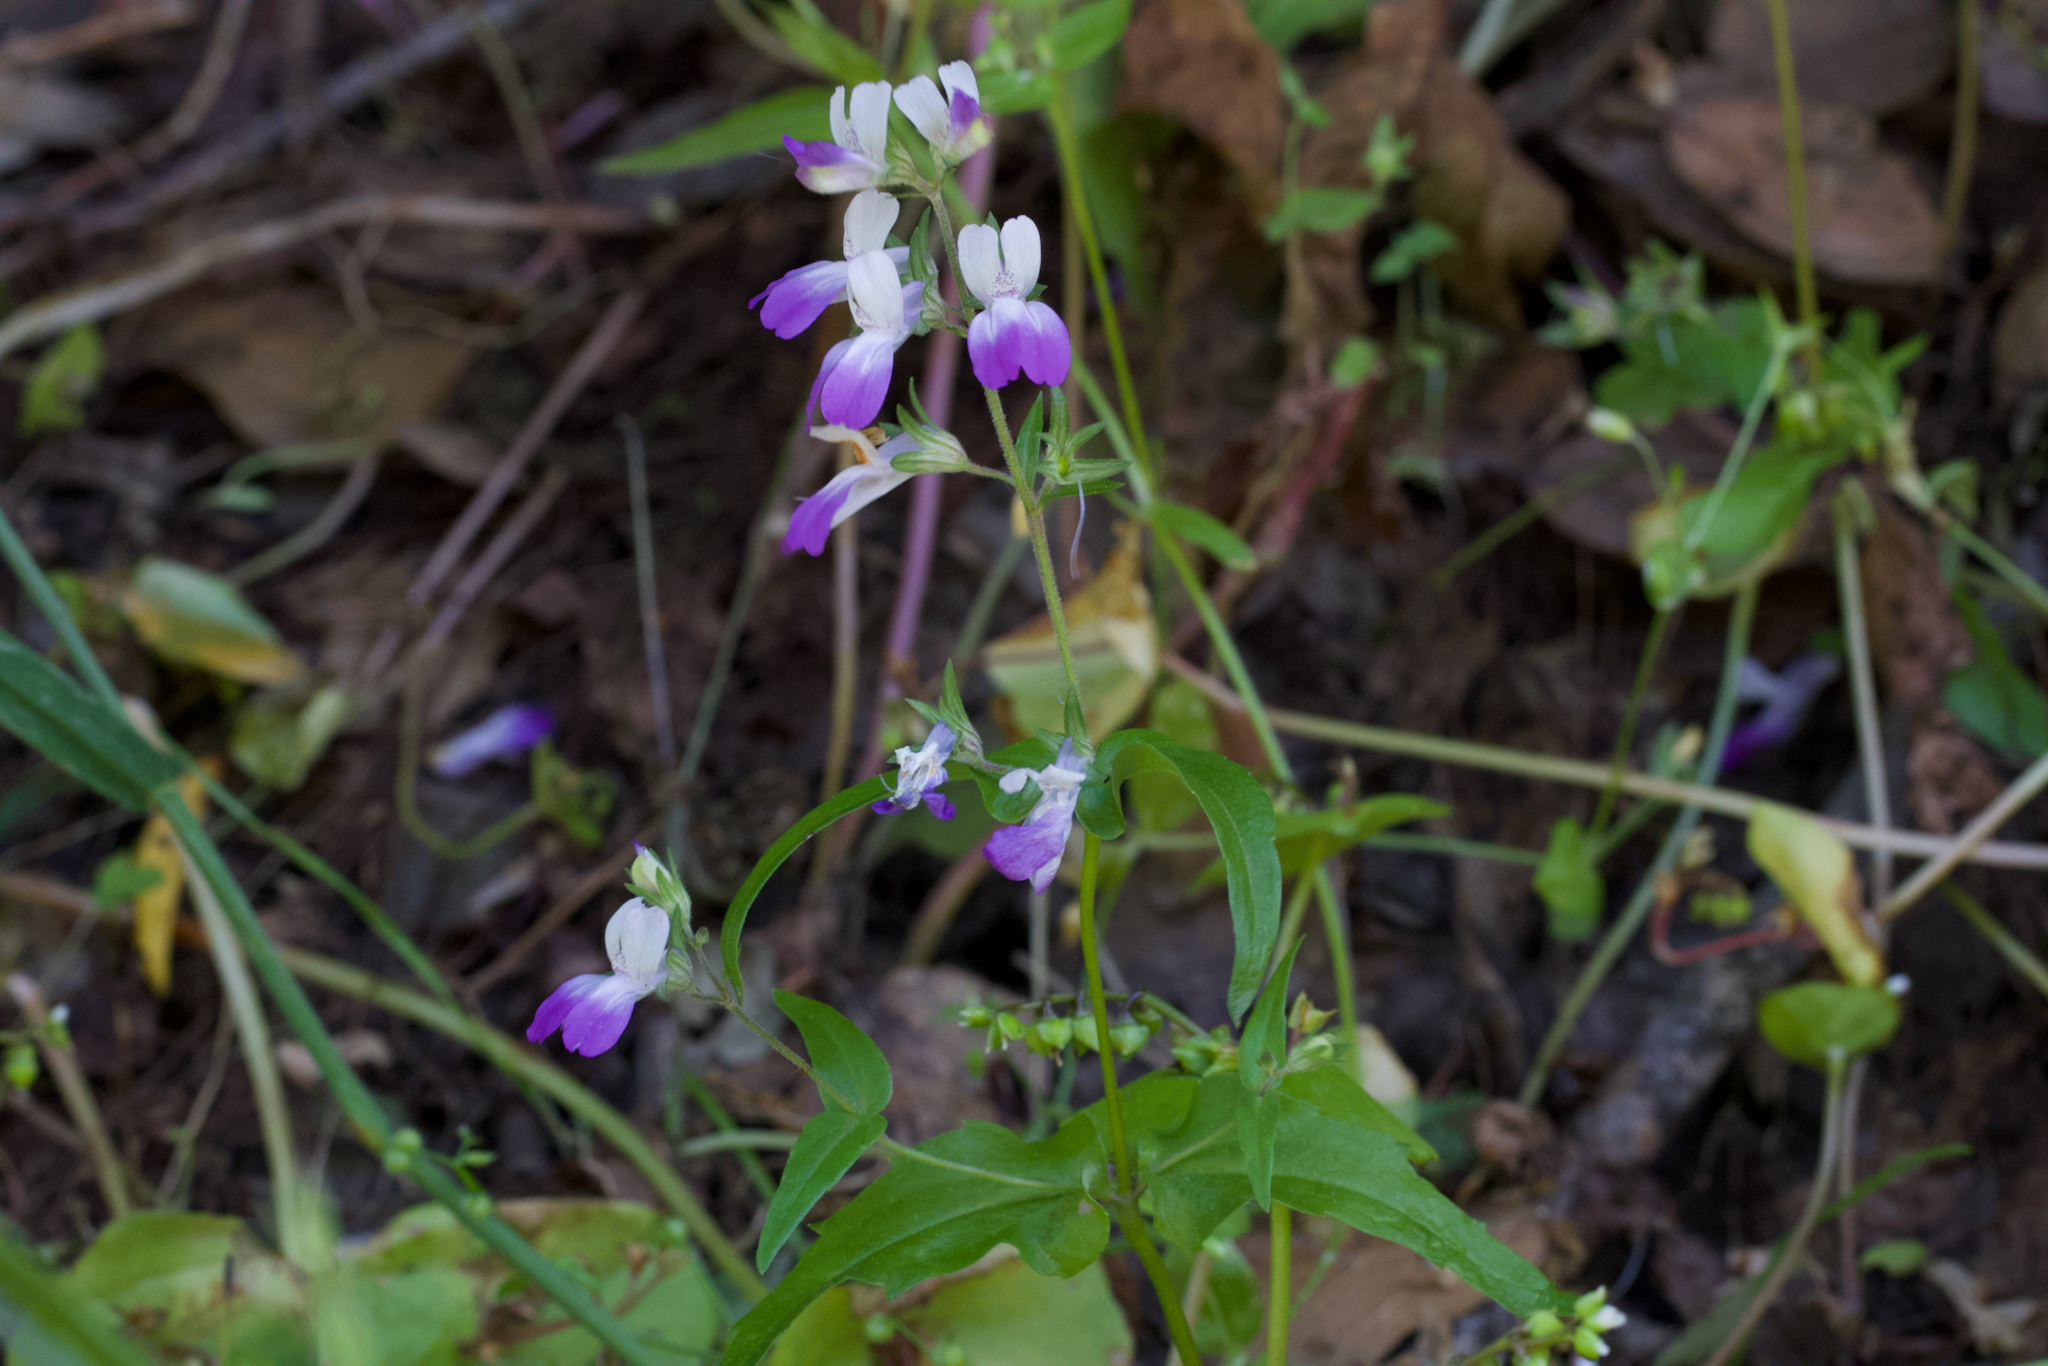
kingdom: Plantae
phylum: Tracheophyta
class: Magnoliopsida
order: Lamiales
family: Plantaginaceae
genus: Collinsia
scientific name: Collinsia multicolor
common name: San francisco collinsia
